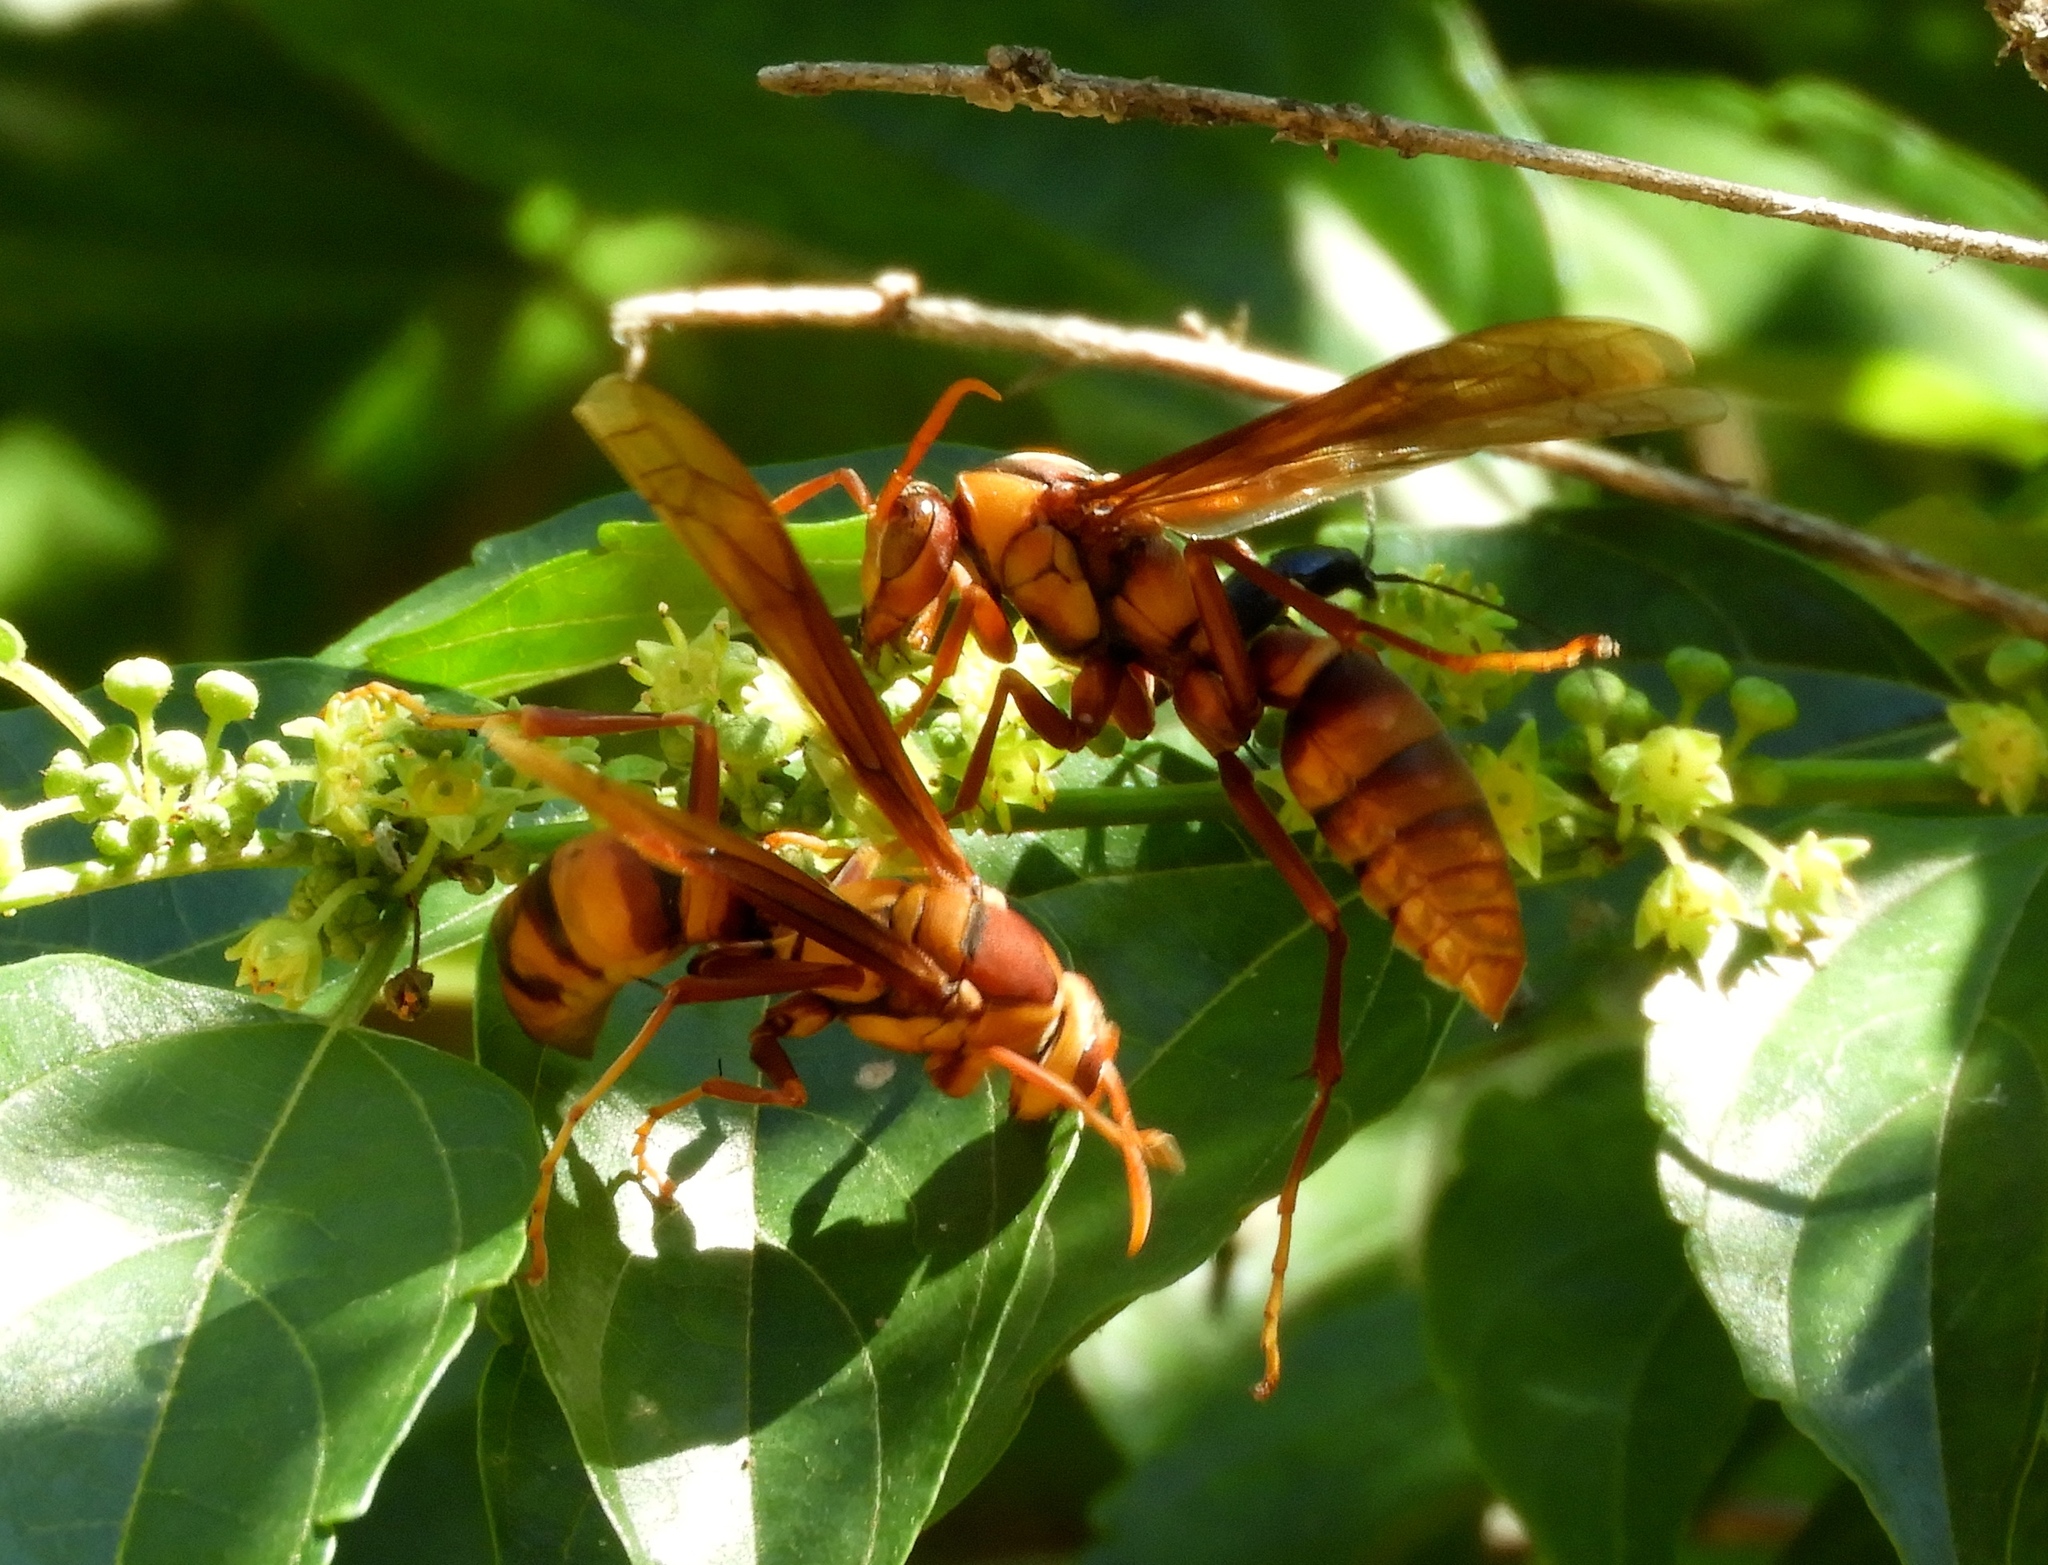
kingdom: Animalia
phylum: Arthropoda
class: Insecta
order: Hymenoptera
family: Eumenidae
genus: Polistes
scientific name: Polistes carnifex
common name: Paper wasp
